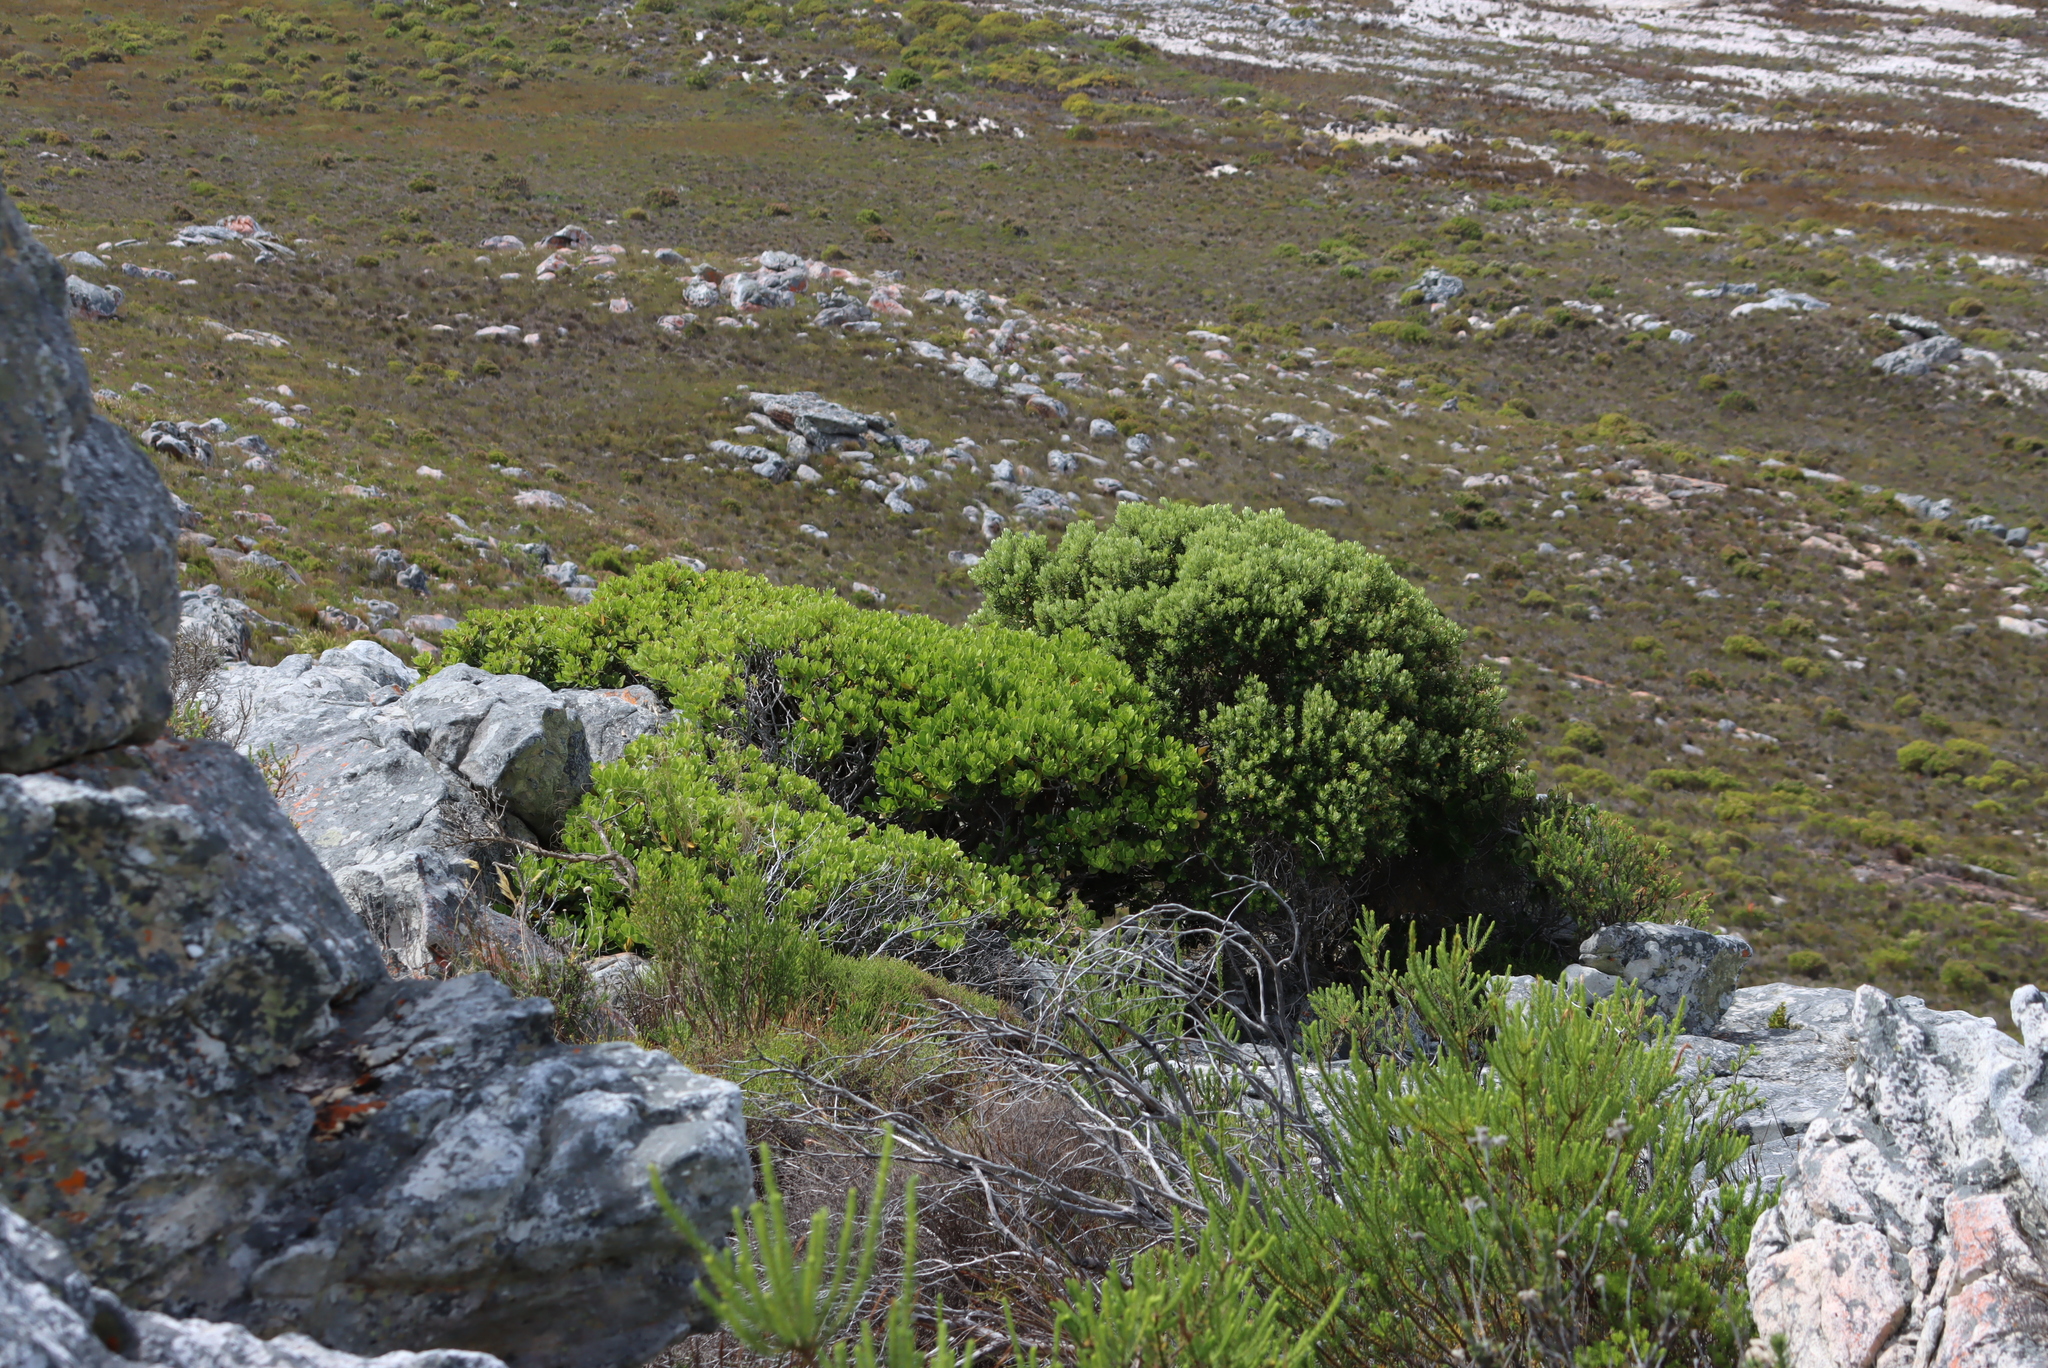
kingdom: Plantae
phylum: Tracheophyta
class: Magnoliopsida
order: Rosales
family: Rhamnaceae
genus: Phylica
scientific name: Phylica buxifolia
